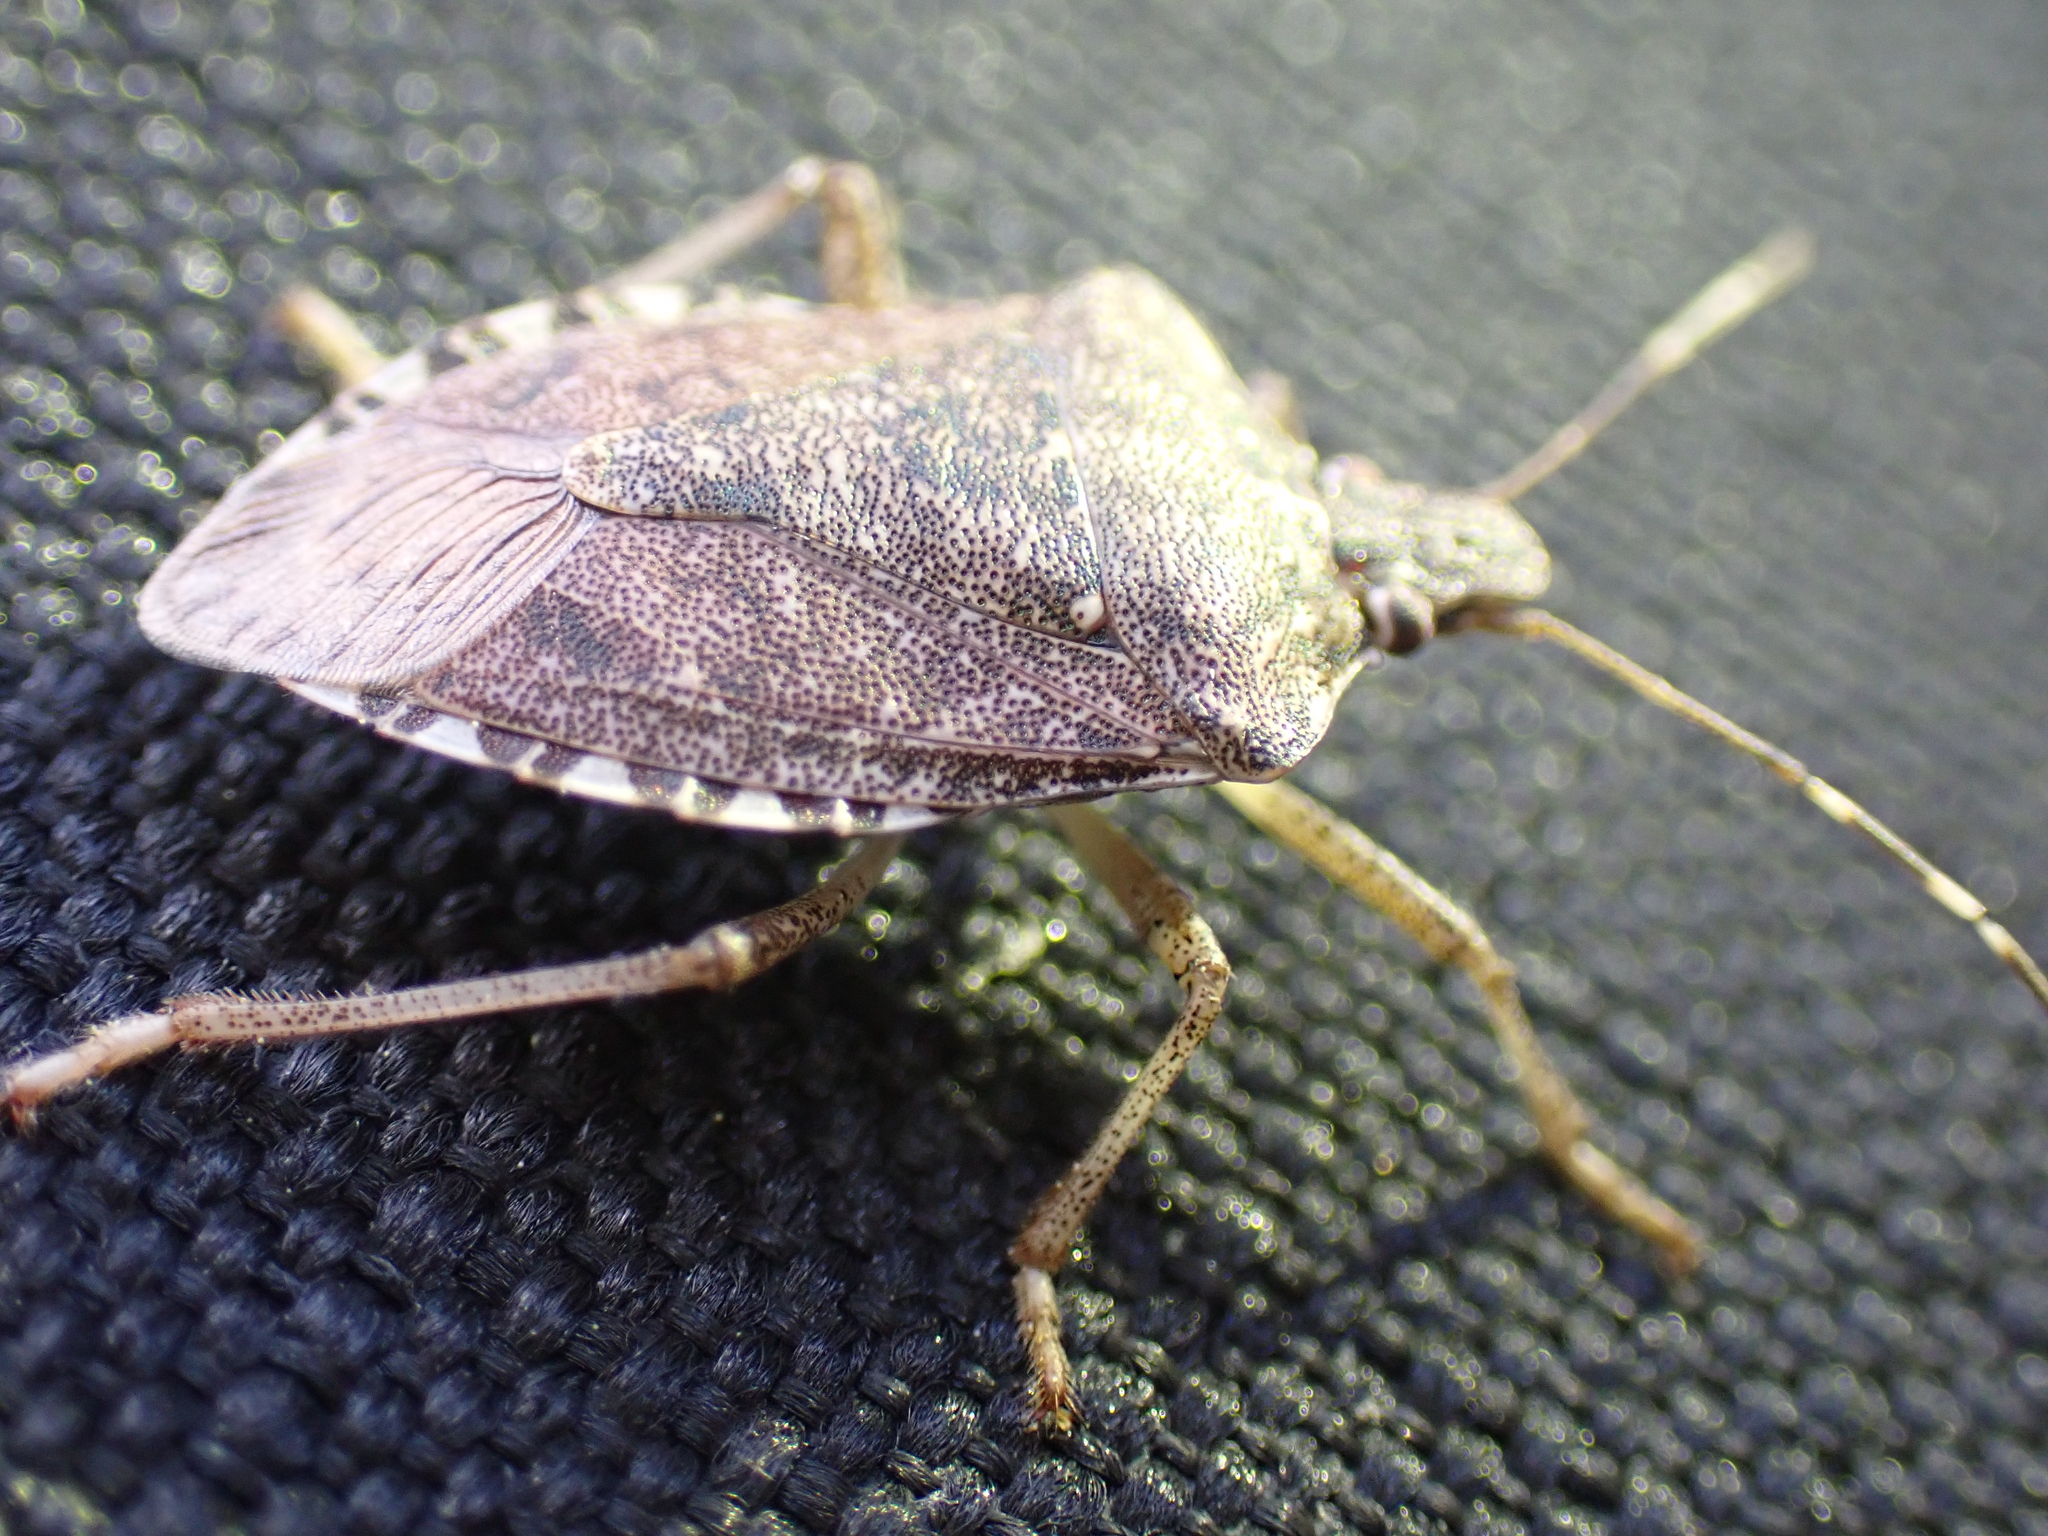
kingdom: Animalia
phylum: Arthropoda
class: Insecta
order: Hemiptera
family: Pentatomidae
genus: Halyomorpha
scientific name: Halyomorpha halys
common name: Brown marmorated stink bug
